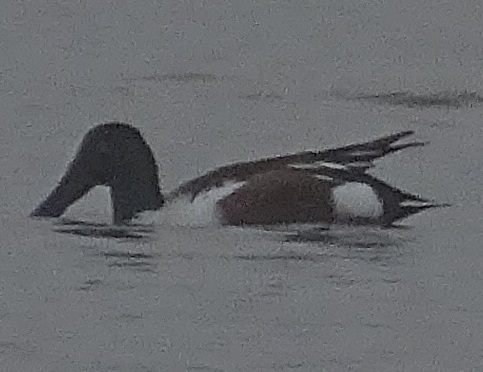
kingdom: Animalia
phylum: Chordata
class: Aves
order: Anseriformes
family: Anatidae
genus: Spatula
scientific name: Spatula clypeata
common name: Northern shoveler
